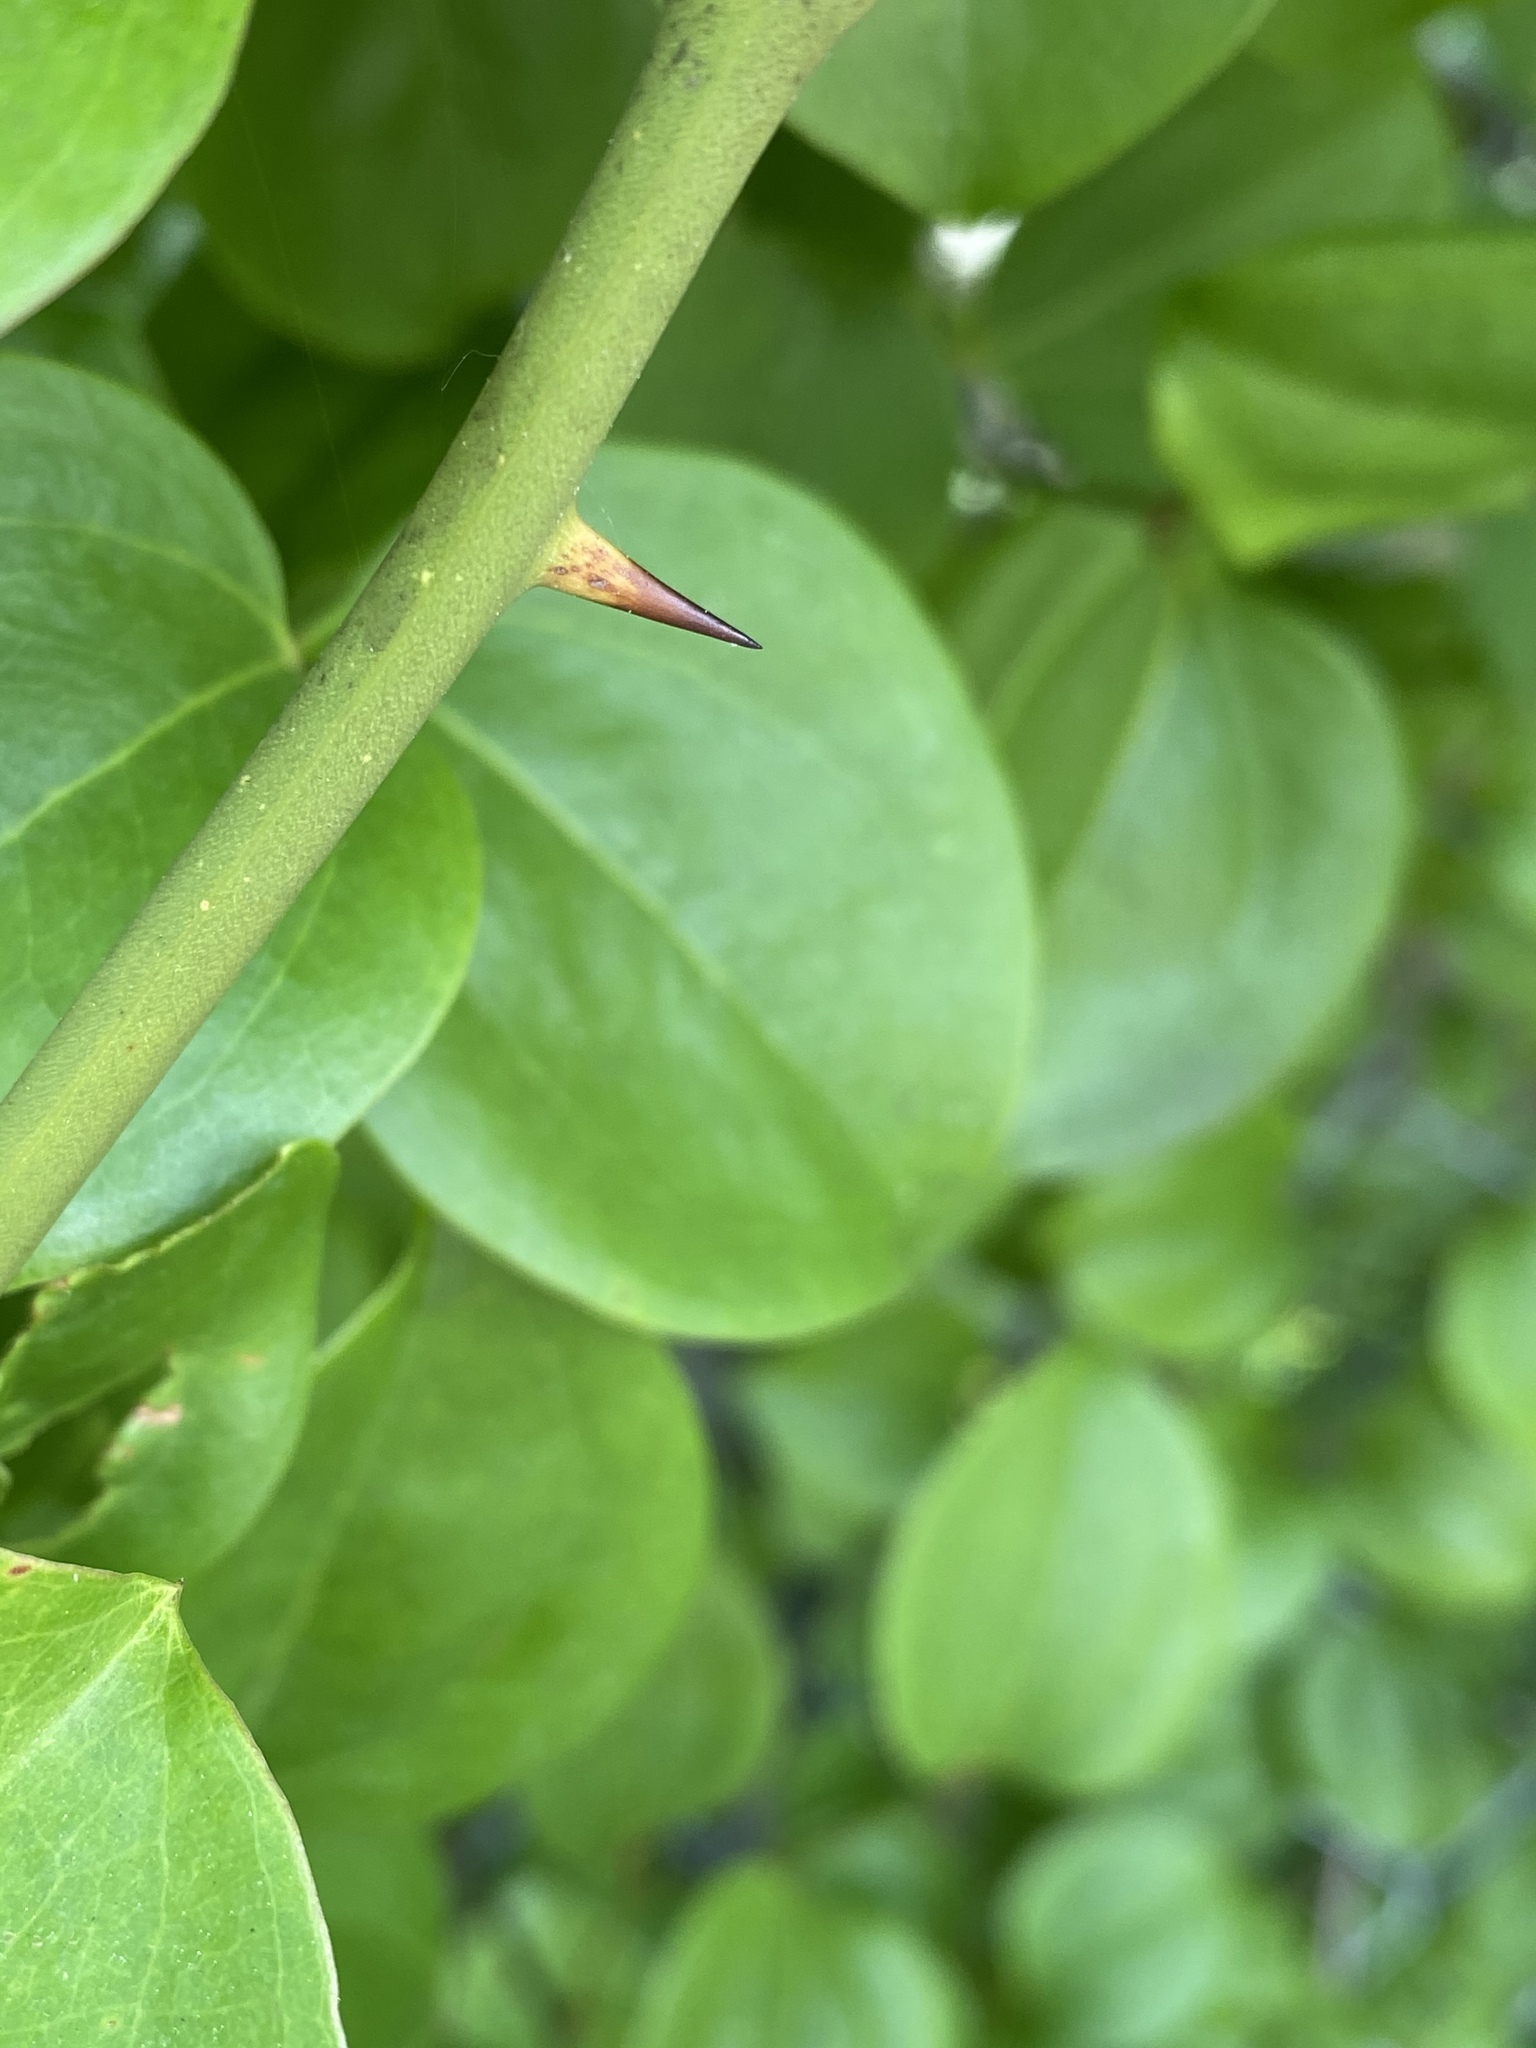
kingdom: Plantae
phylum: Tracheophyta
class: Liliopsida
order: Liliales
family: Smilacaceae
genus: Smilax
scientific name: Smilax rotundifolia
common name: Bullbriar
